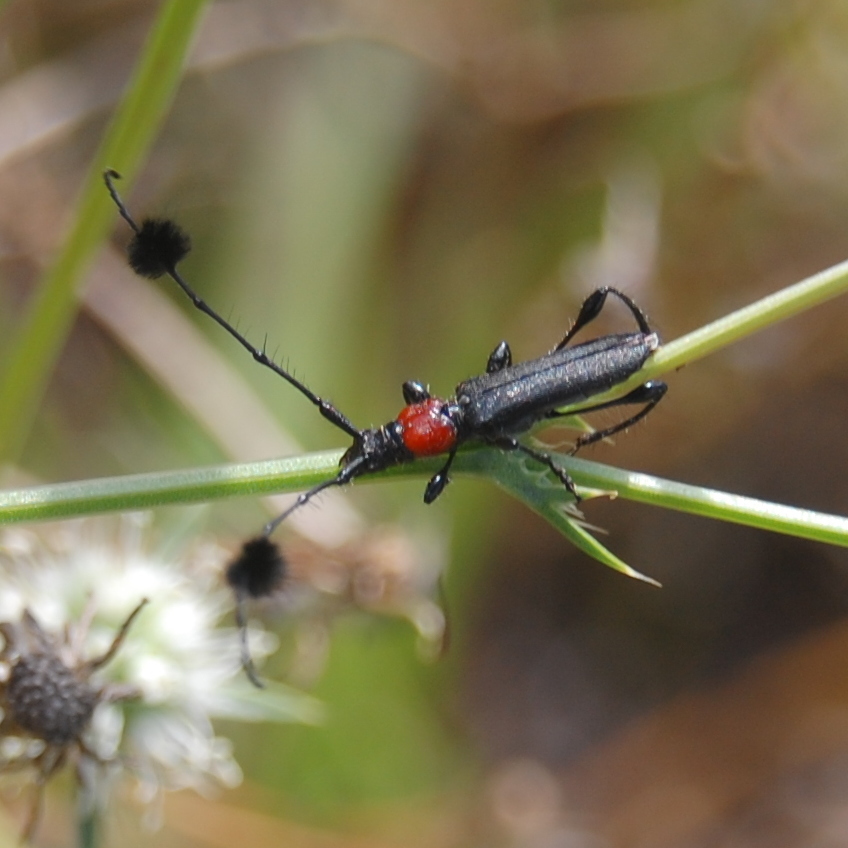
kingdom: Animalia
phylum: Arthropoda
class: Insecta
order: Coleoptera
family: Cerambycidae
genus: Cosmisoma
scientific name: Cosmisoma brullei
